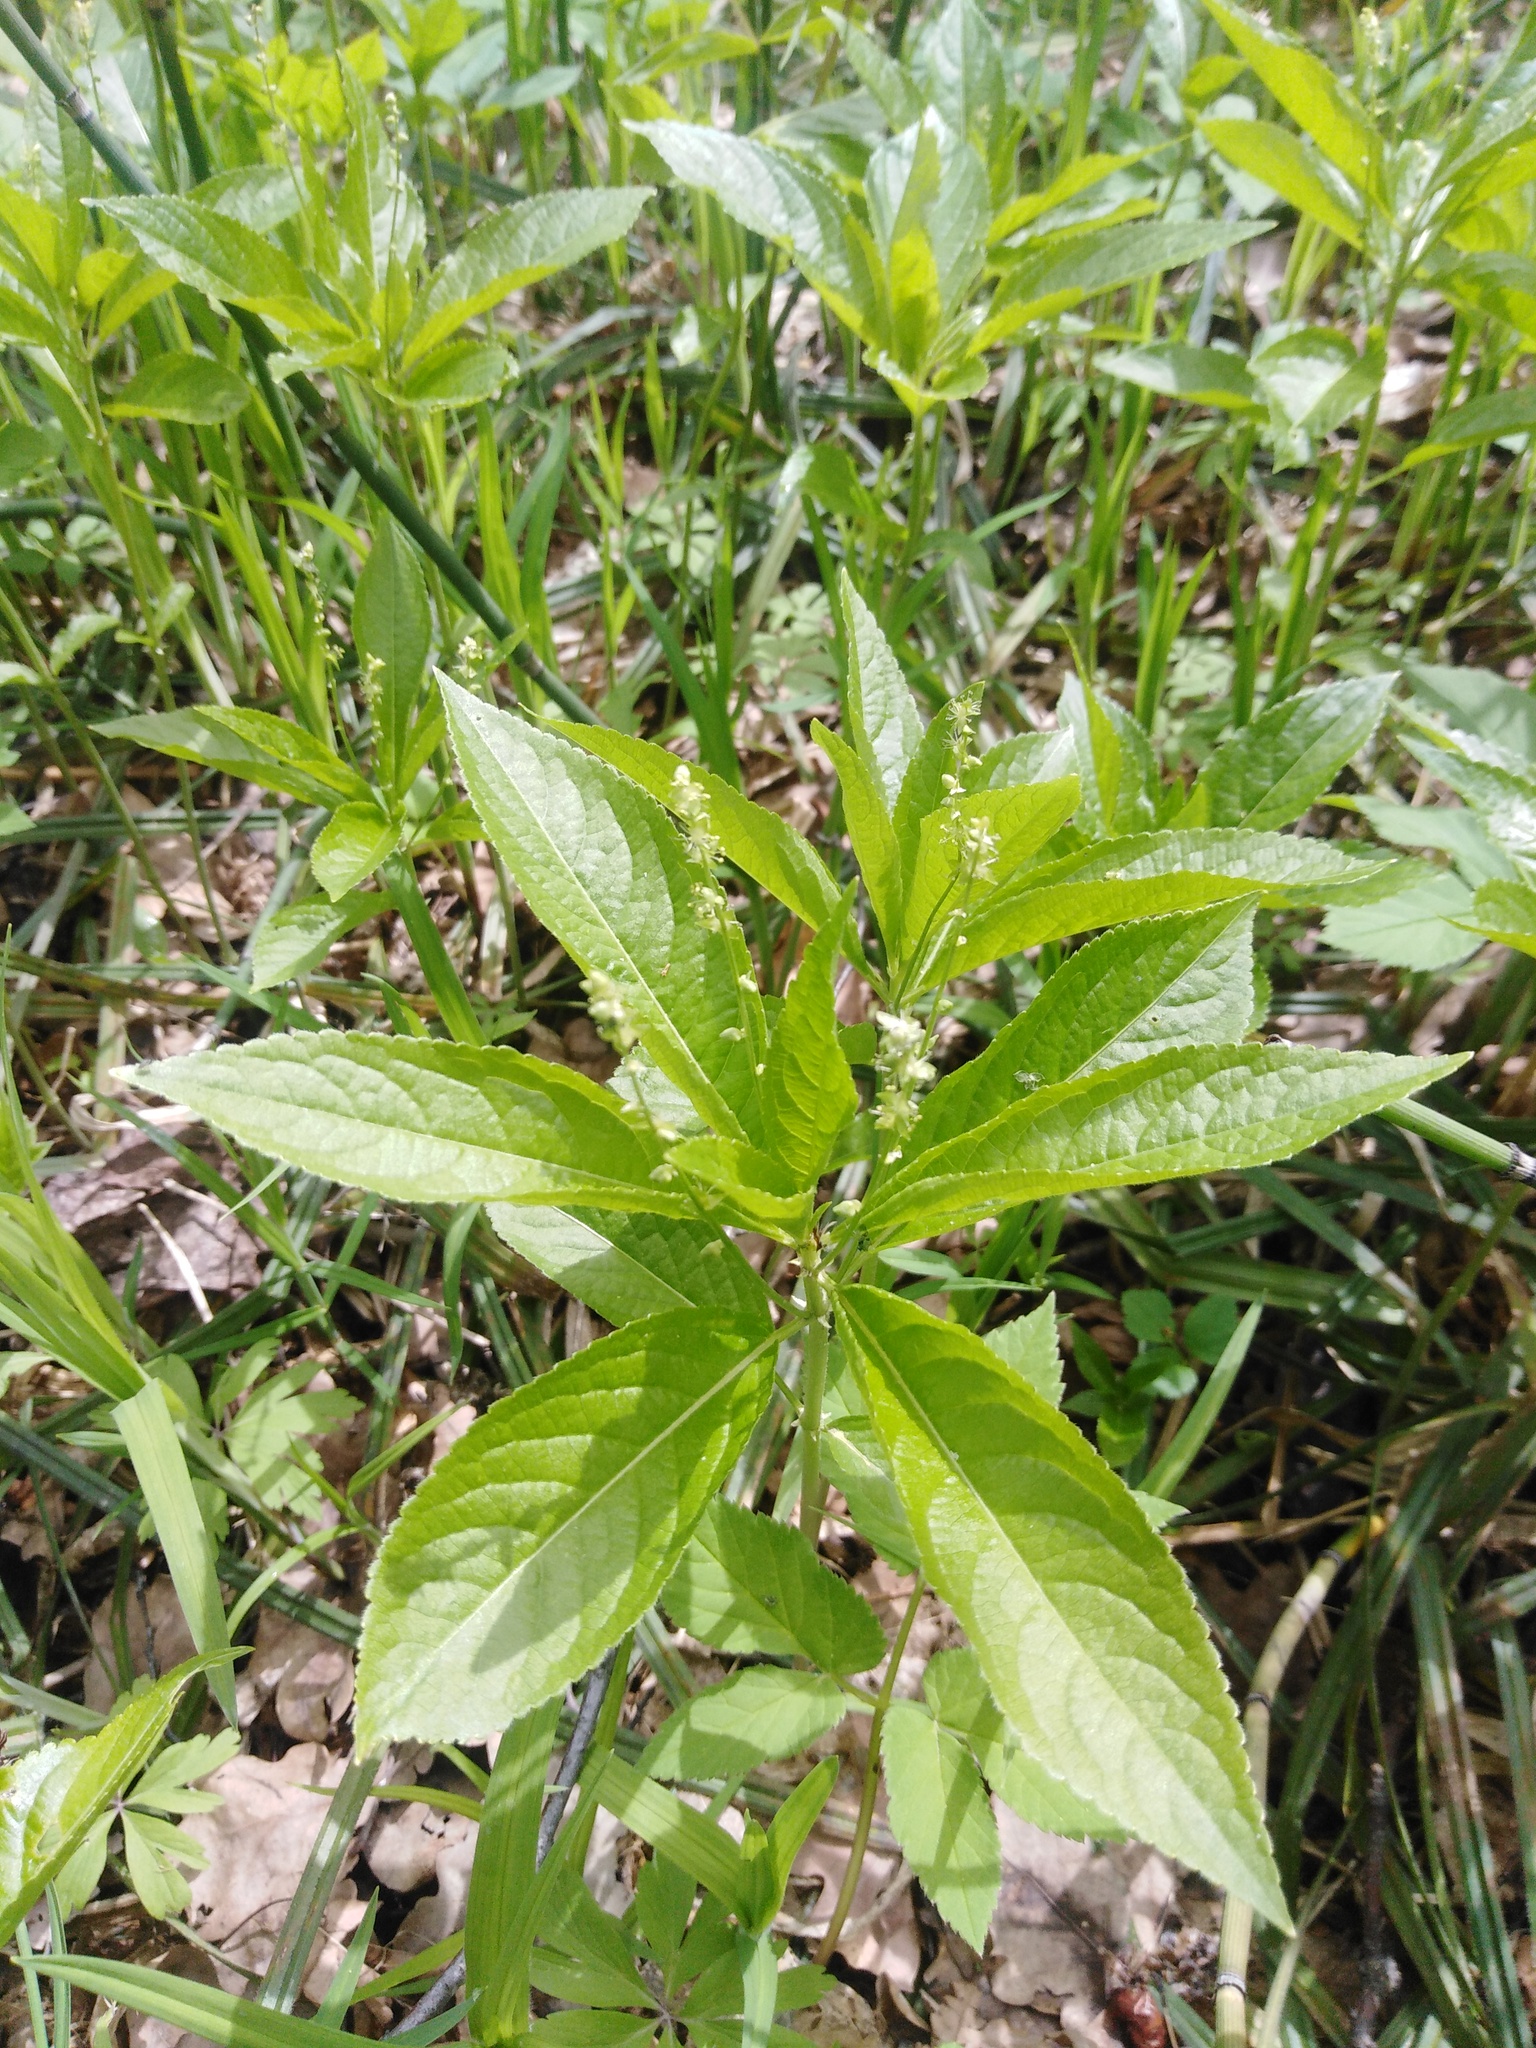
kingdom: Plantae
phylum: Tracheophyta
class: Magnoliopsida
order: Malpighiales
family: Euphorbiaceae
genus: Mercurialis
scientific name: Mercurialis perennis
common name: Dog mercury
